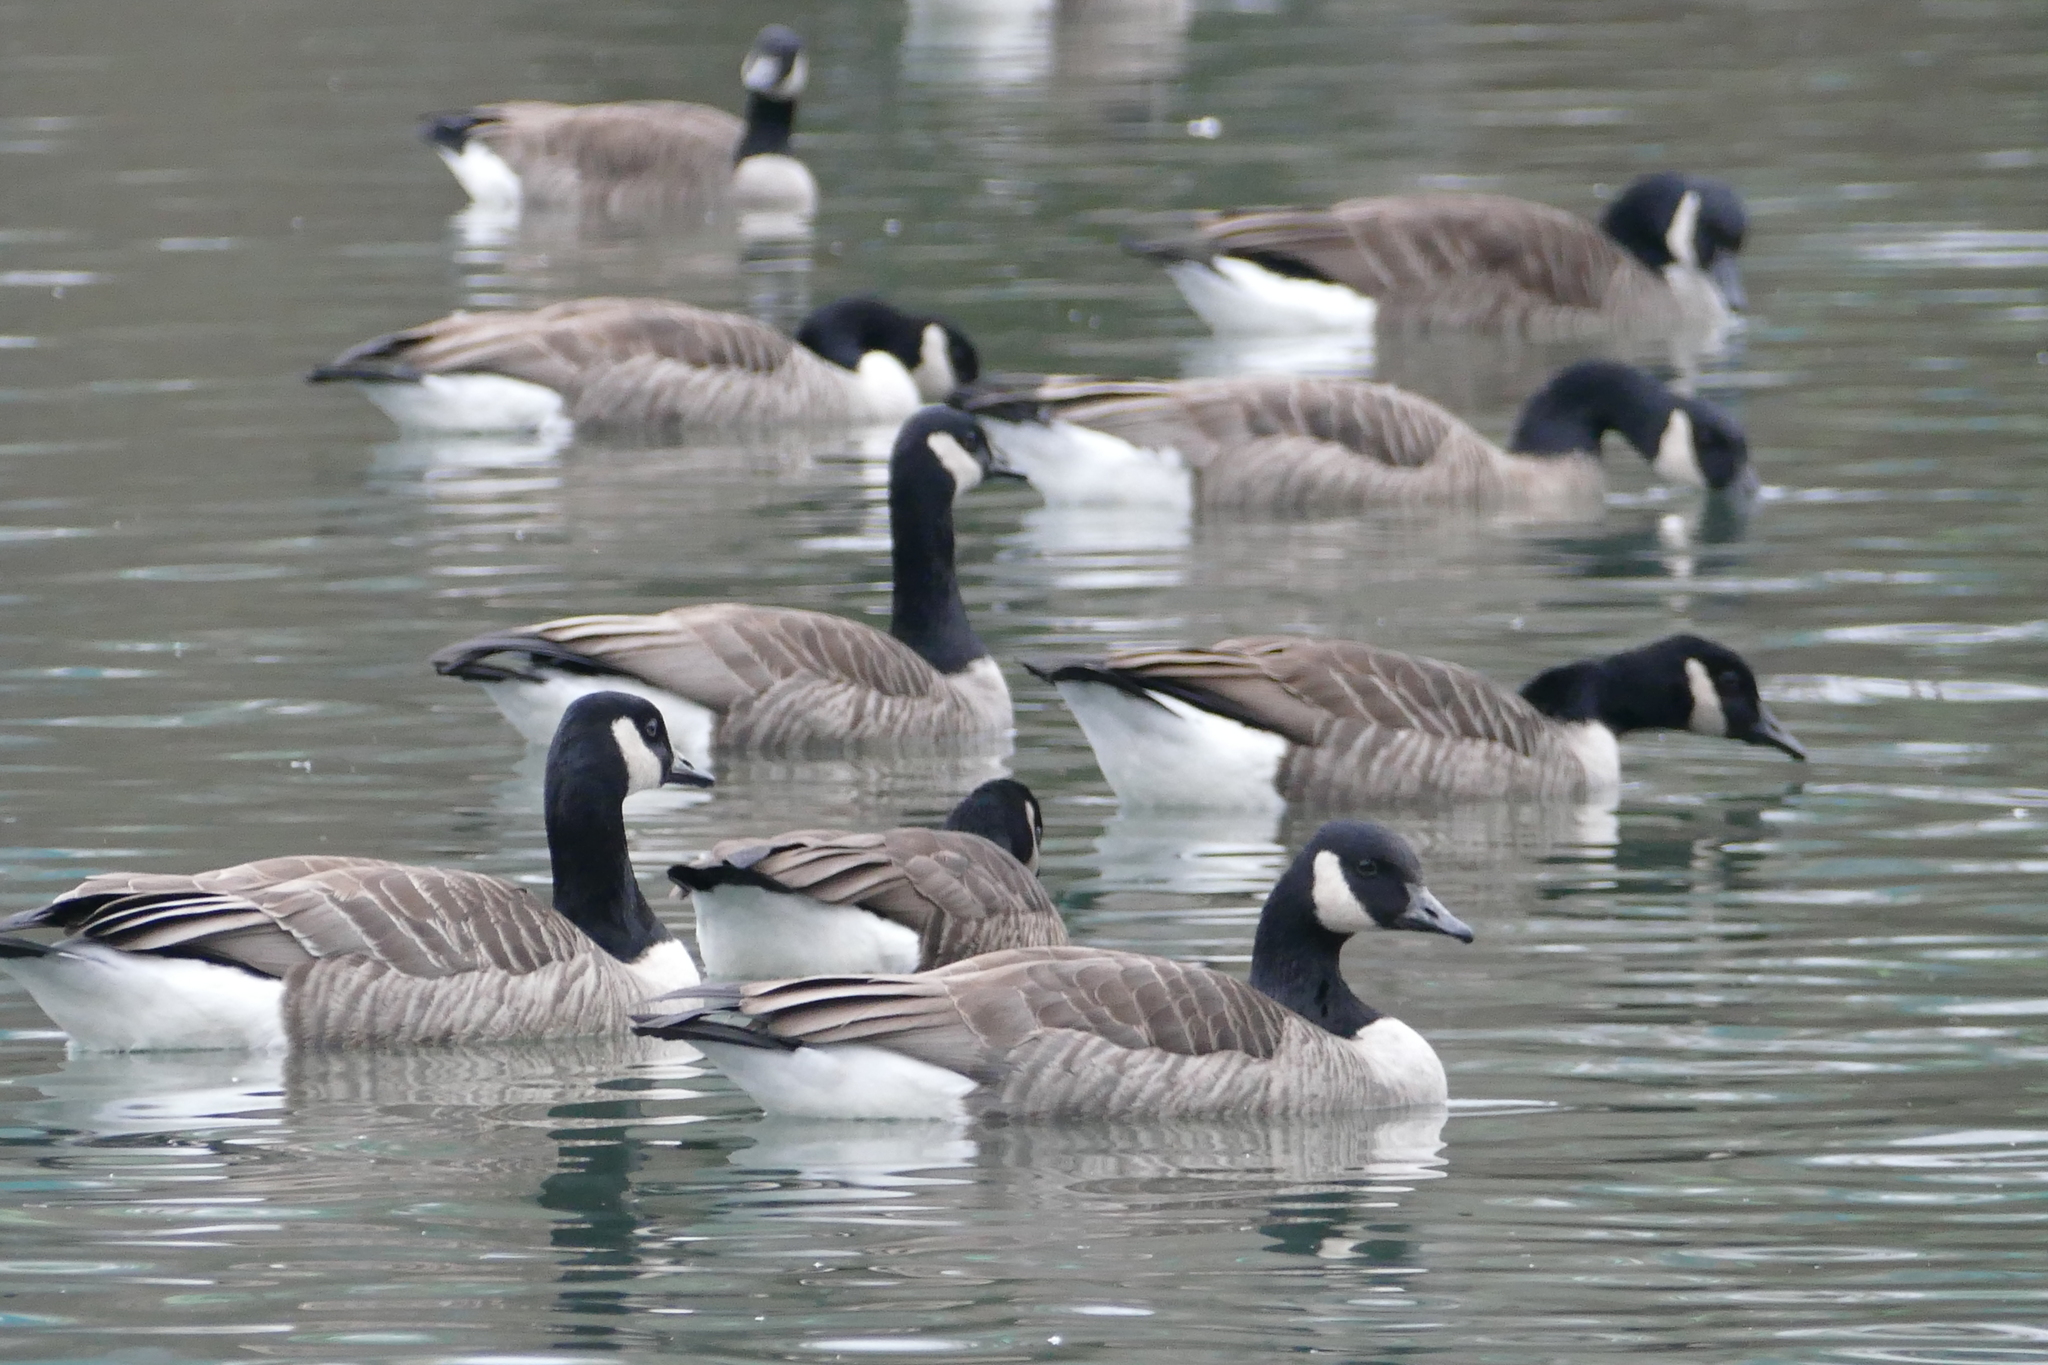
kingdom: Animalia
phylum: Chordata
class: Aves
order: Anseriformes
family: Anatidae
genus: Branta
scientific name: Branta canadensis
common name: Canada goose
